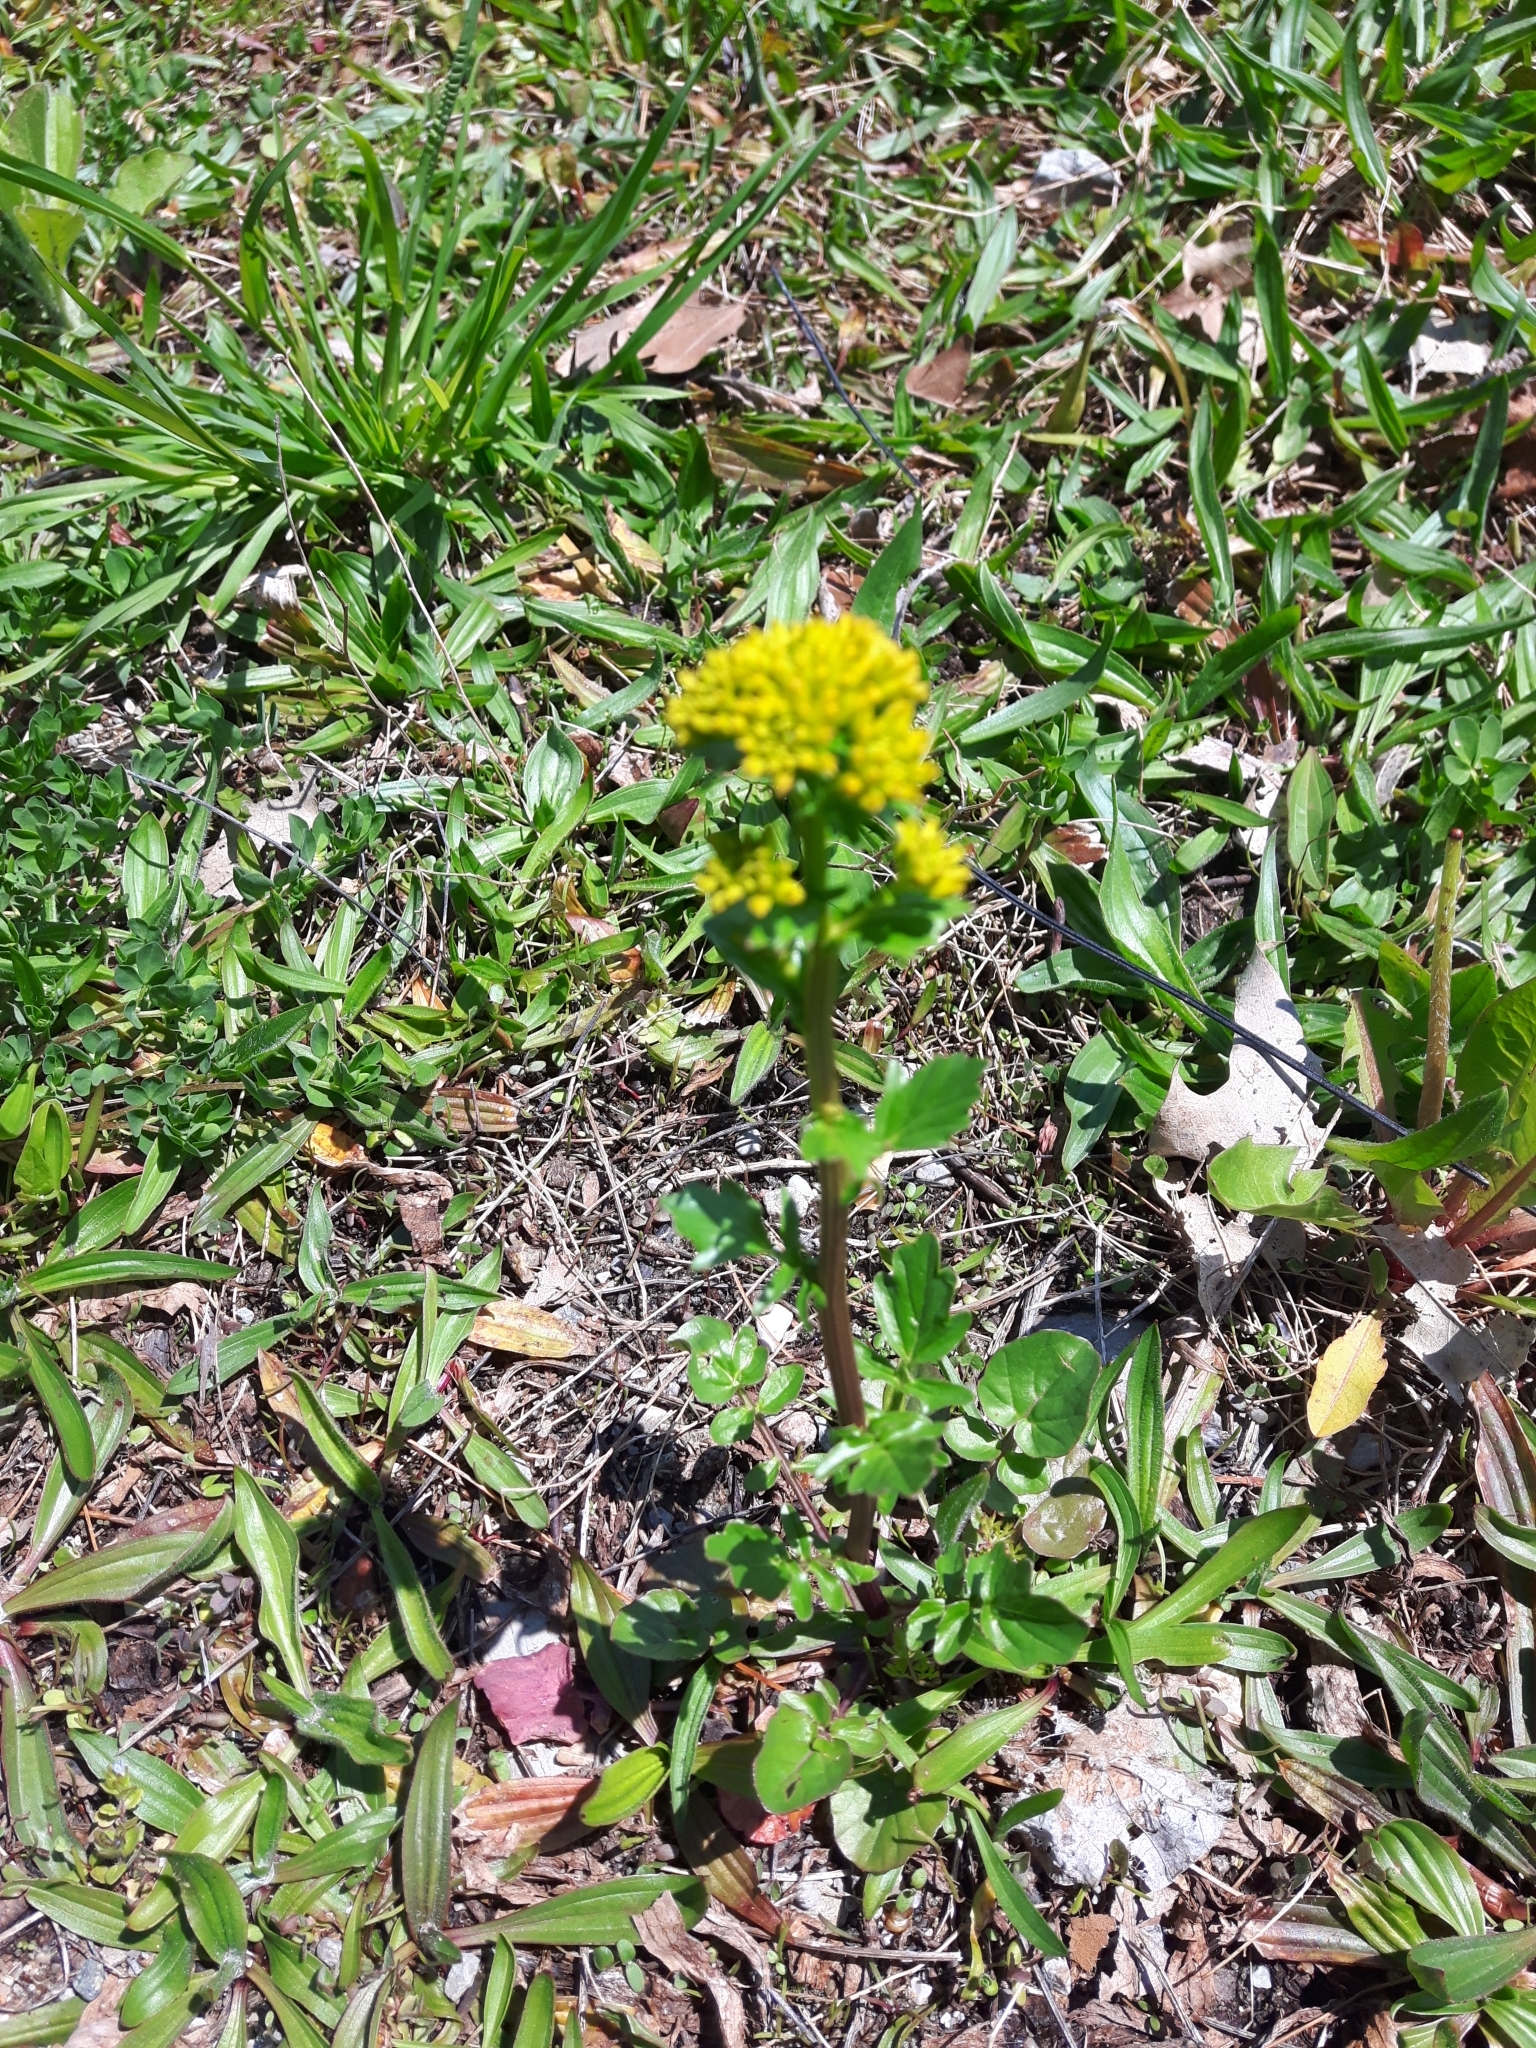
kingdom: Plantae
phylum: Tracheophyta
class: Magnoliopsida
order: Brassicales
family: Brassicaceae
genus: Barbarea
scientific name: Barbarea vulgaris
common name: Cressy-greens
